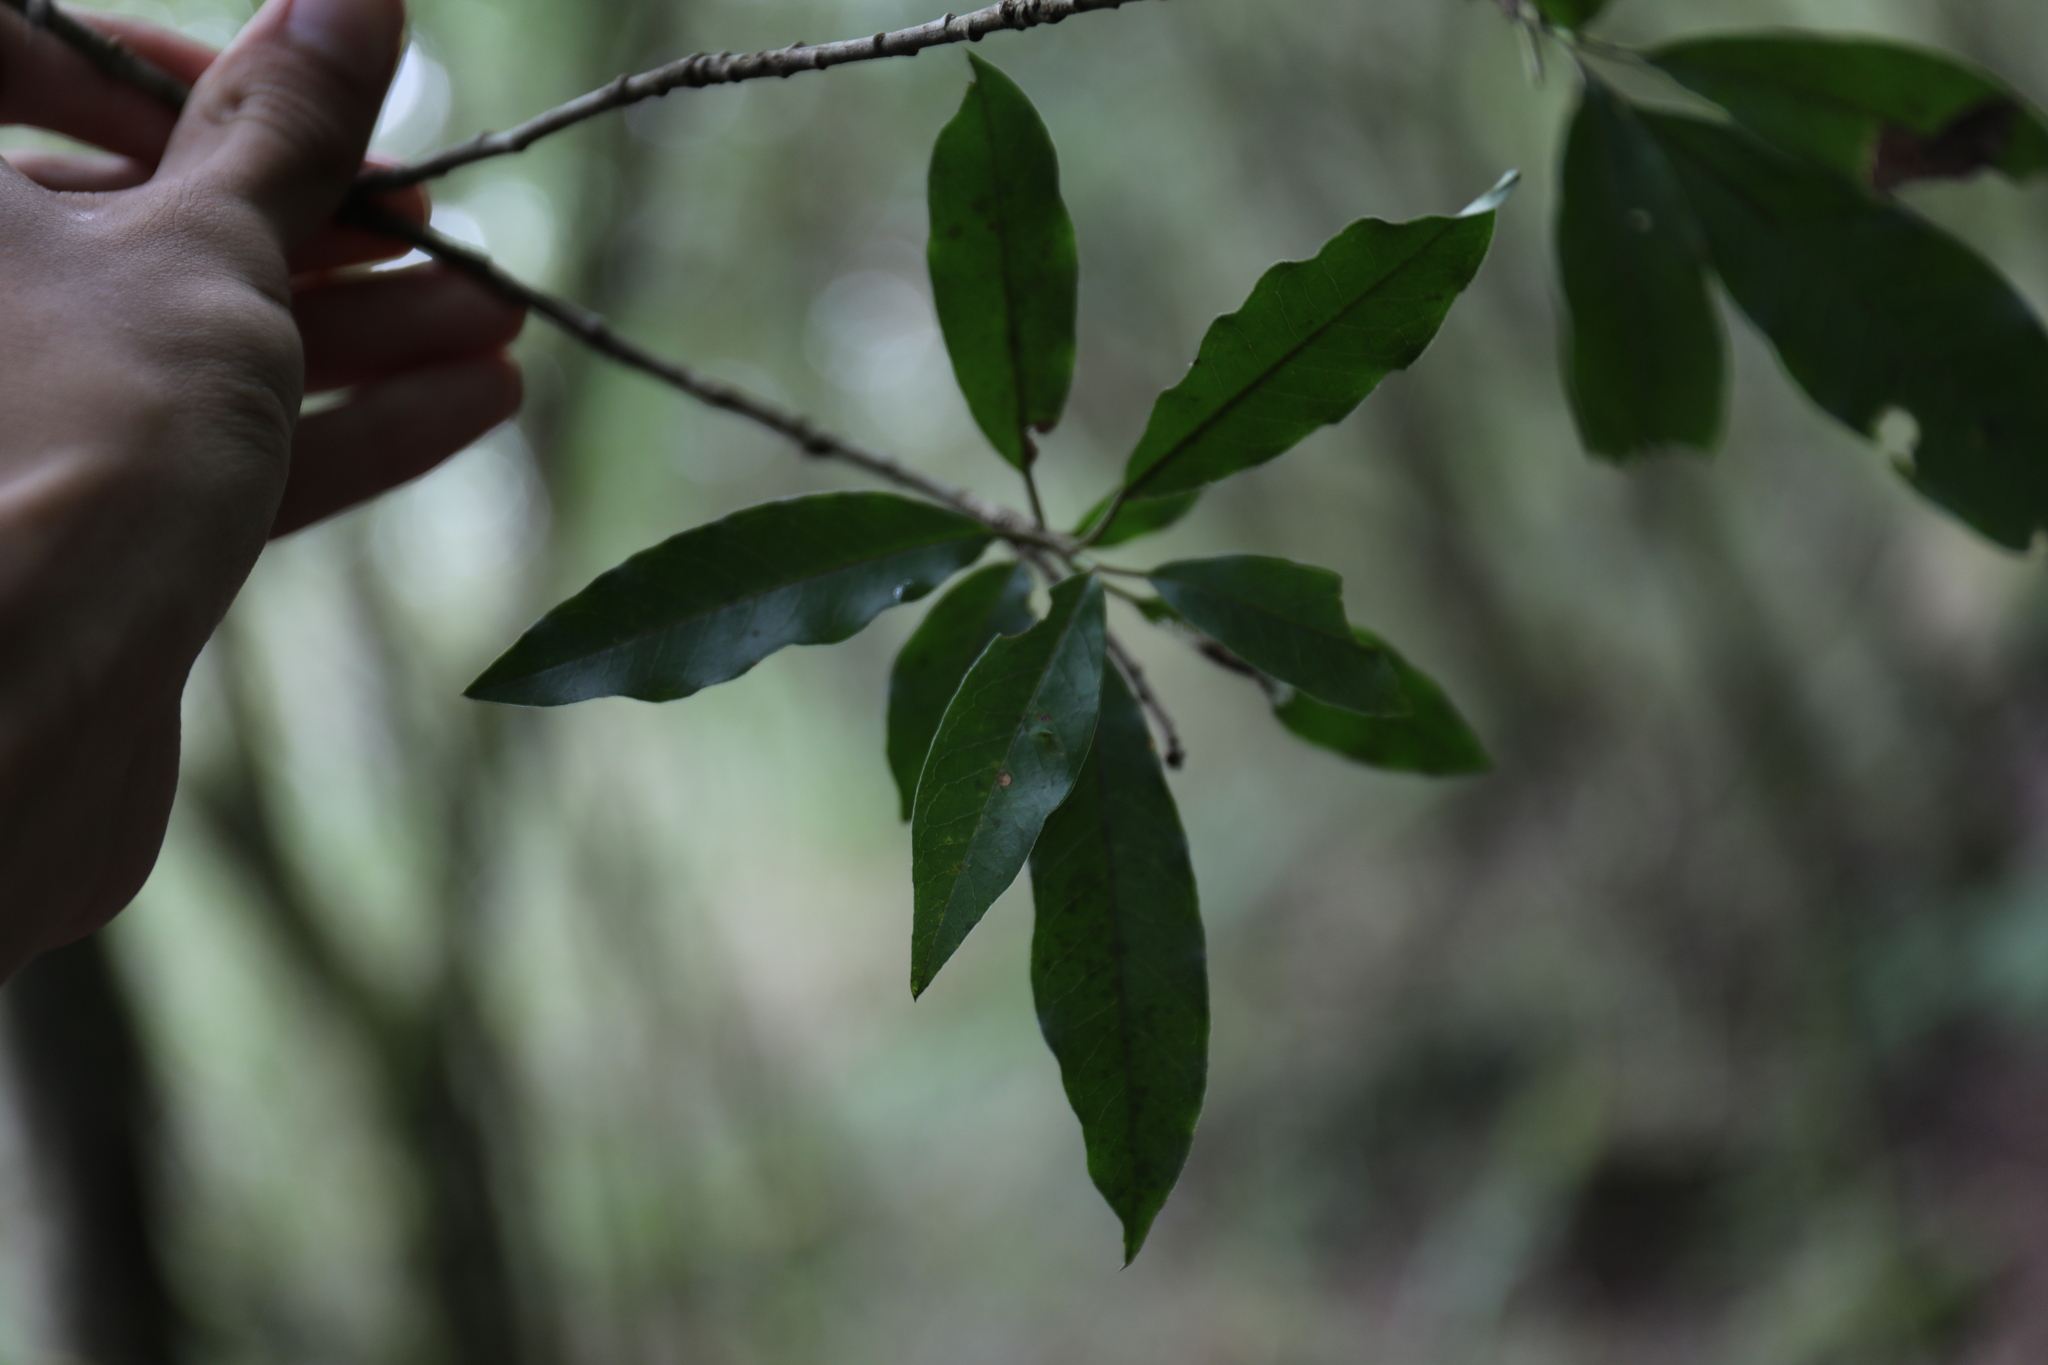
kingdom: Plantae
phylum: Tracheophyta
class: Magnoliopsida
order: Rosales
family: Rosaceae
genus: Stranvaesia
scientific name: Stranvaesia davidiana
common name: Chinese photinia
